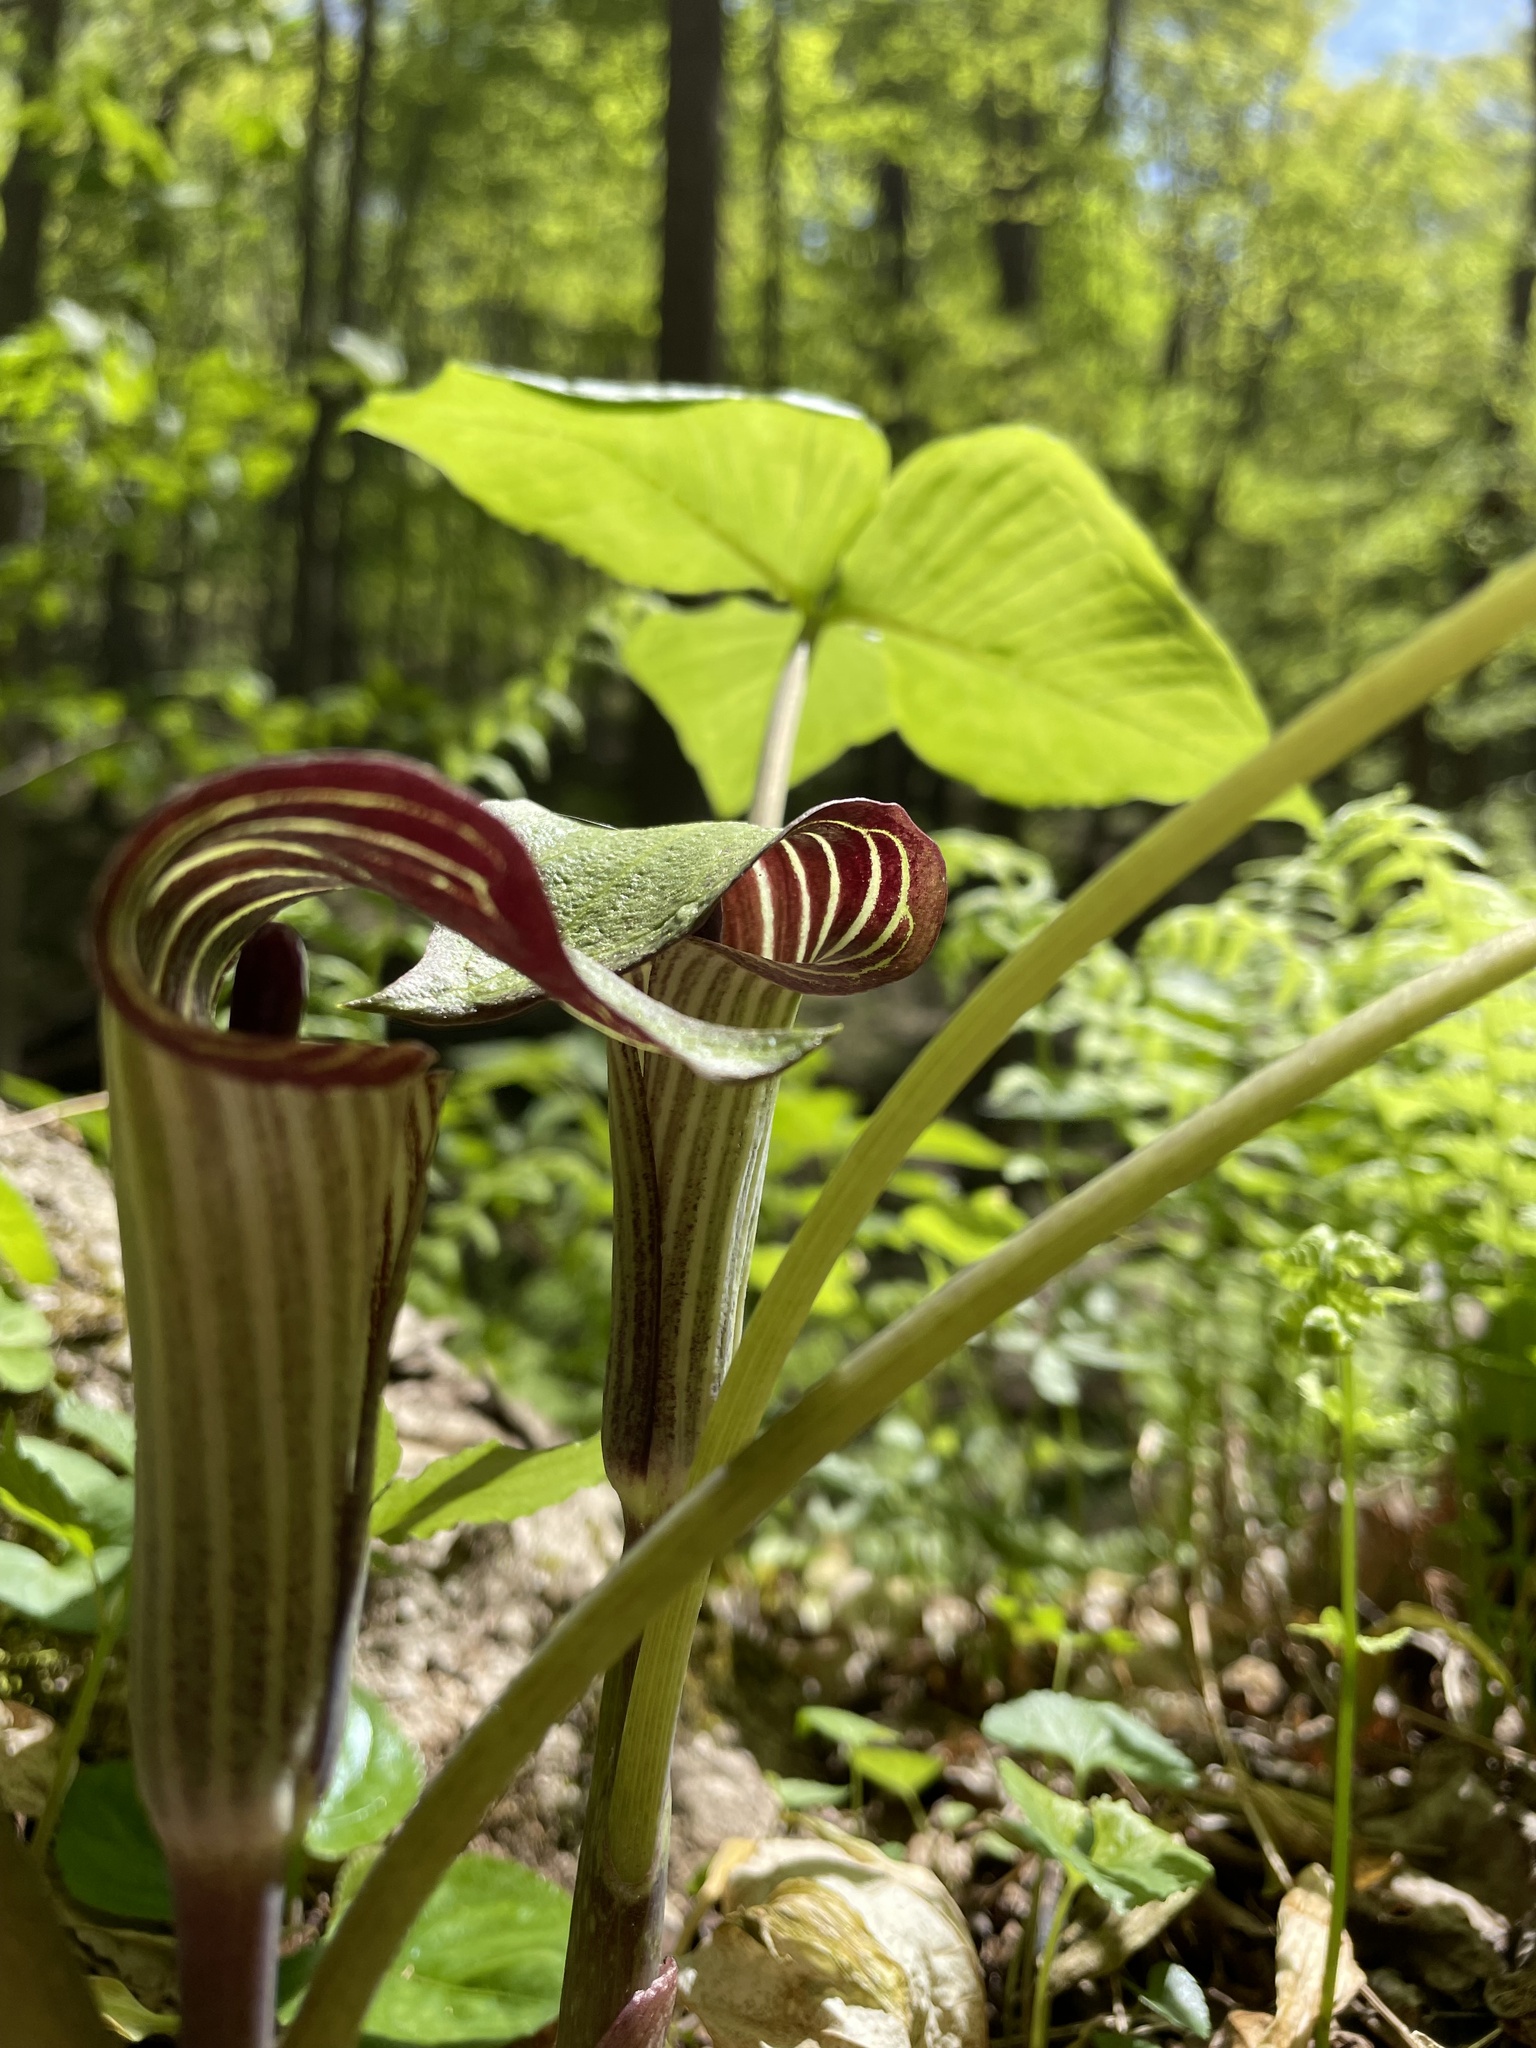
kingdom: Plantae
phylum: Tracheophyta
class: Liliopsida
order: Alismatales
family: Araceae
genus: Arisaema
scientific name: Arisaema triphyllum
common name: Jack-in-the-pulpit
